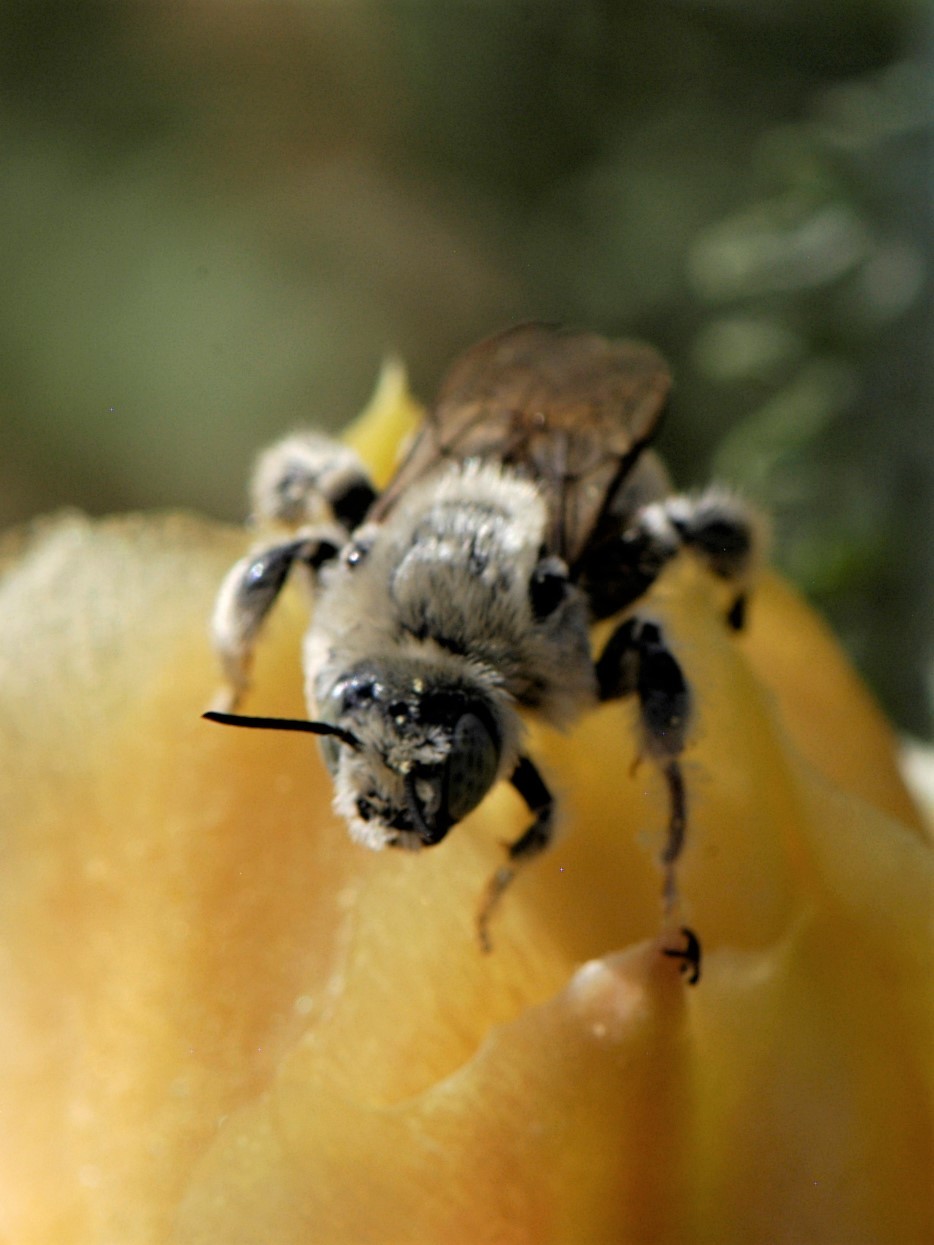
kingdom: Animalia
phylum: Arthropoda
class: Insecta
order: Hymenoptera
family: Apidae
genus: Diadasia
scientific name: Diadasia
